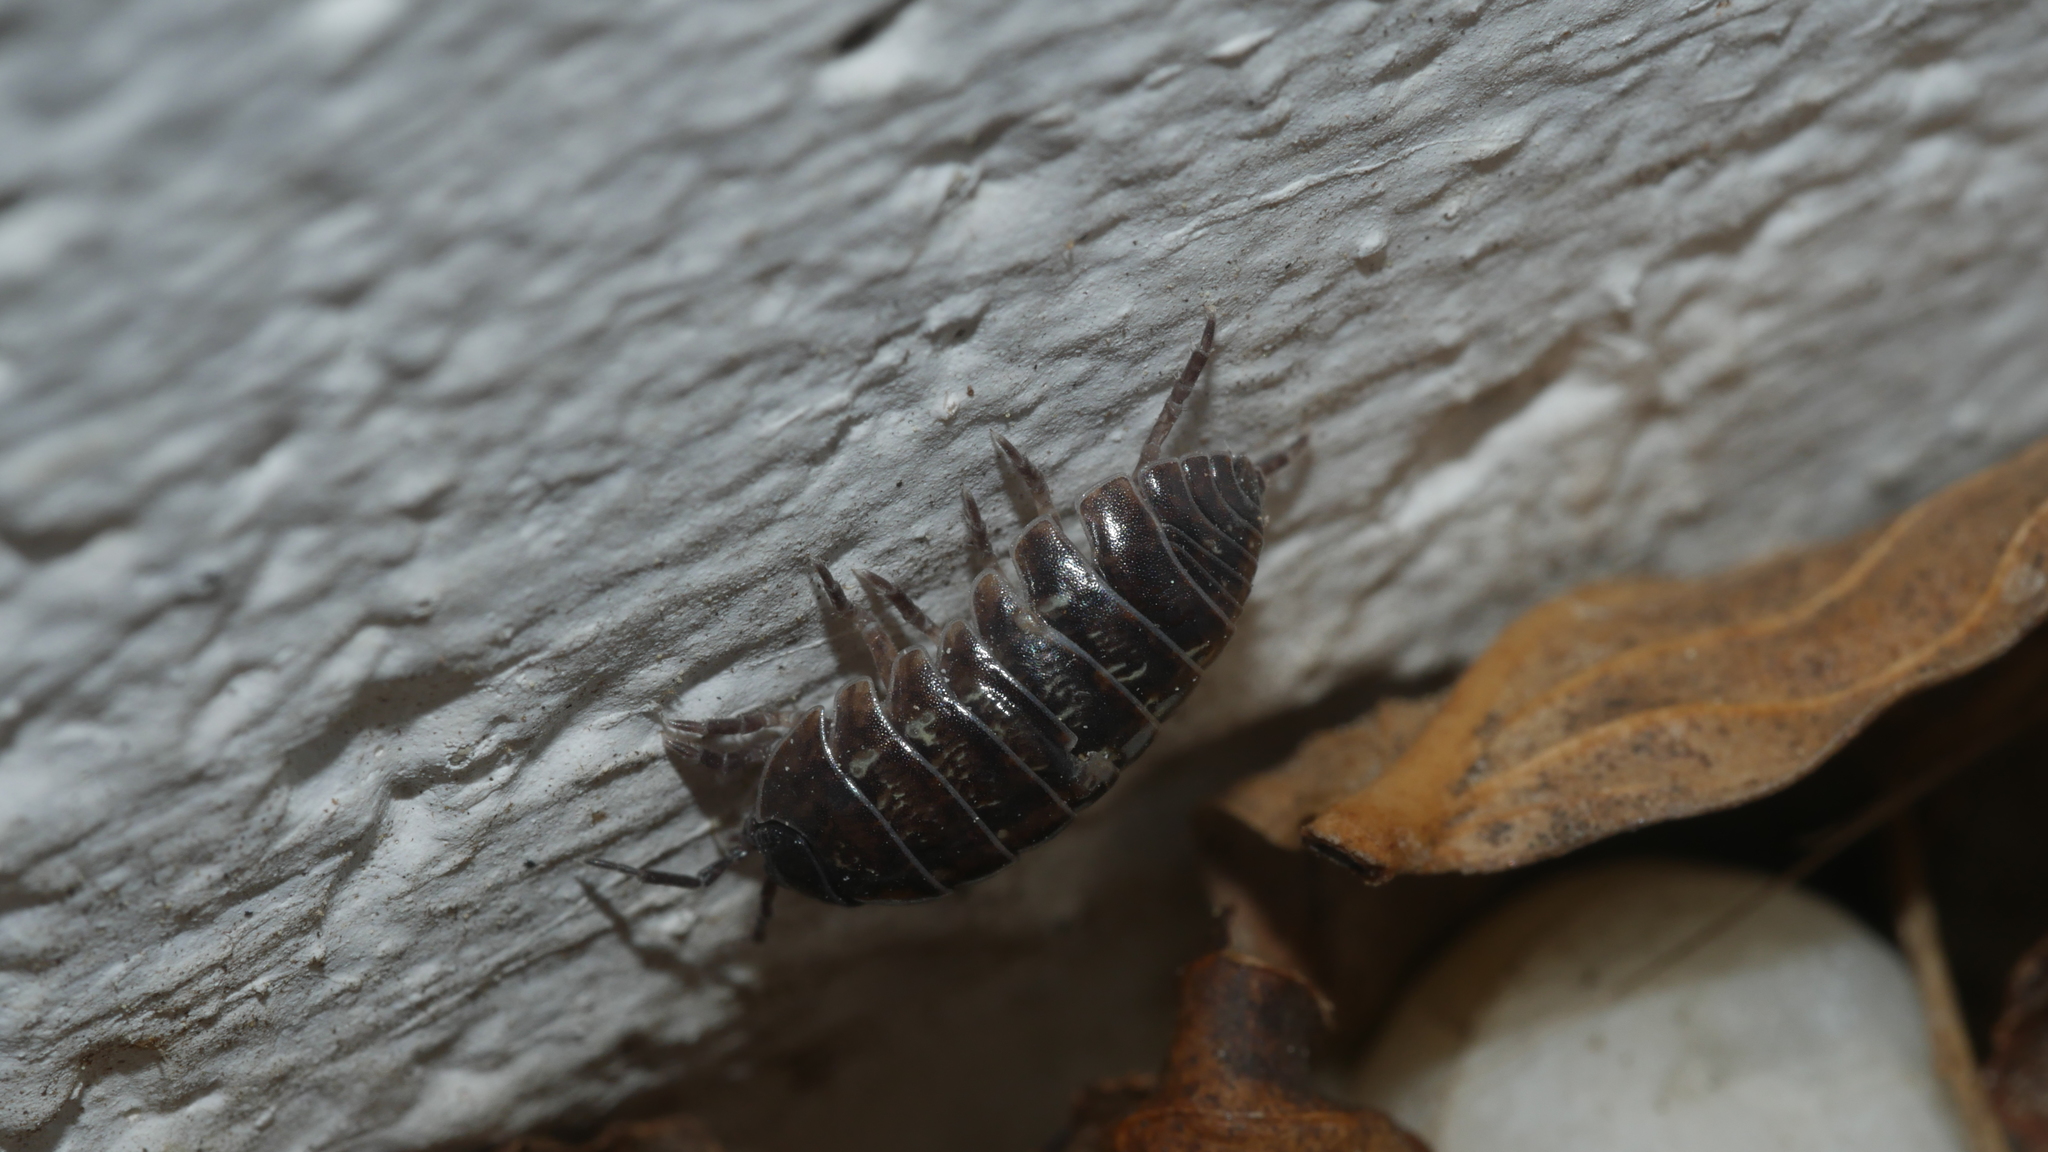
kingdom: Animalia
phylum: Arthropoda
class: Malacostraca
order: Isopoda
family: Armadillidiidae
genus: Armadillidium
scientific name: Armadillidium vulgare
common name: Common pill woodlouse
